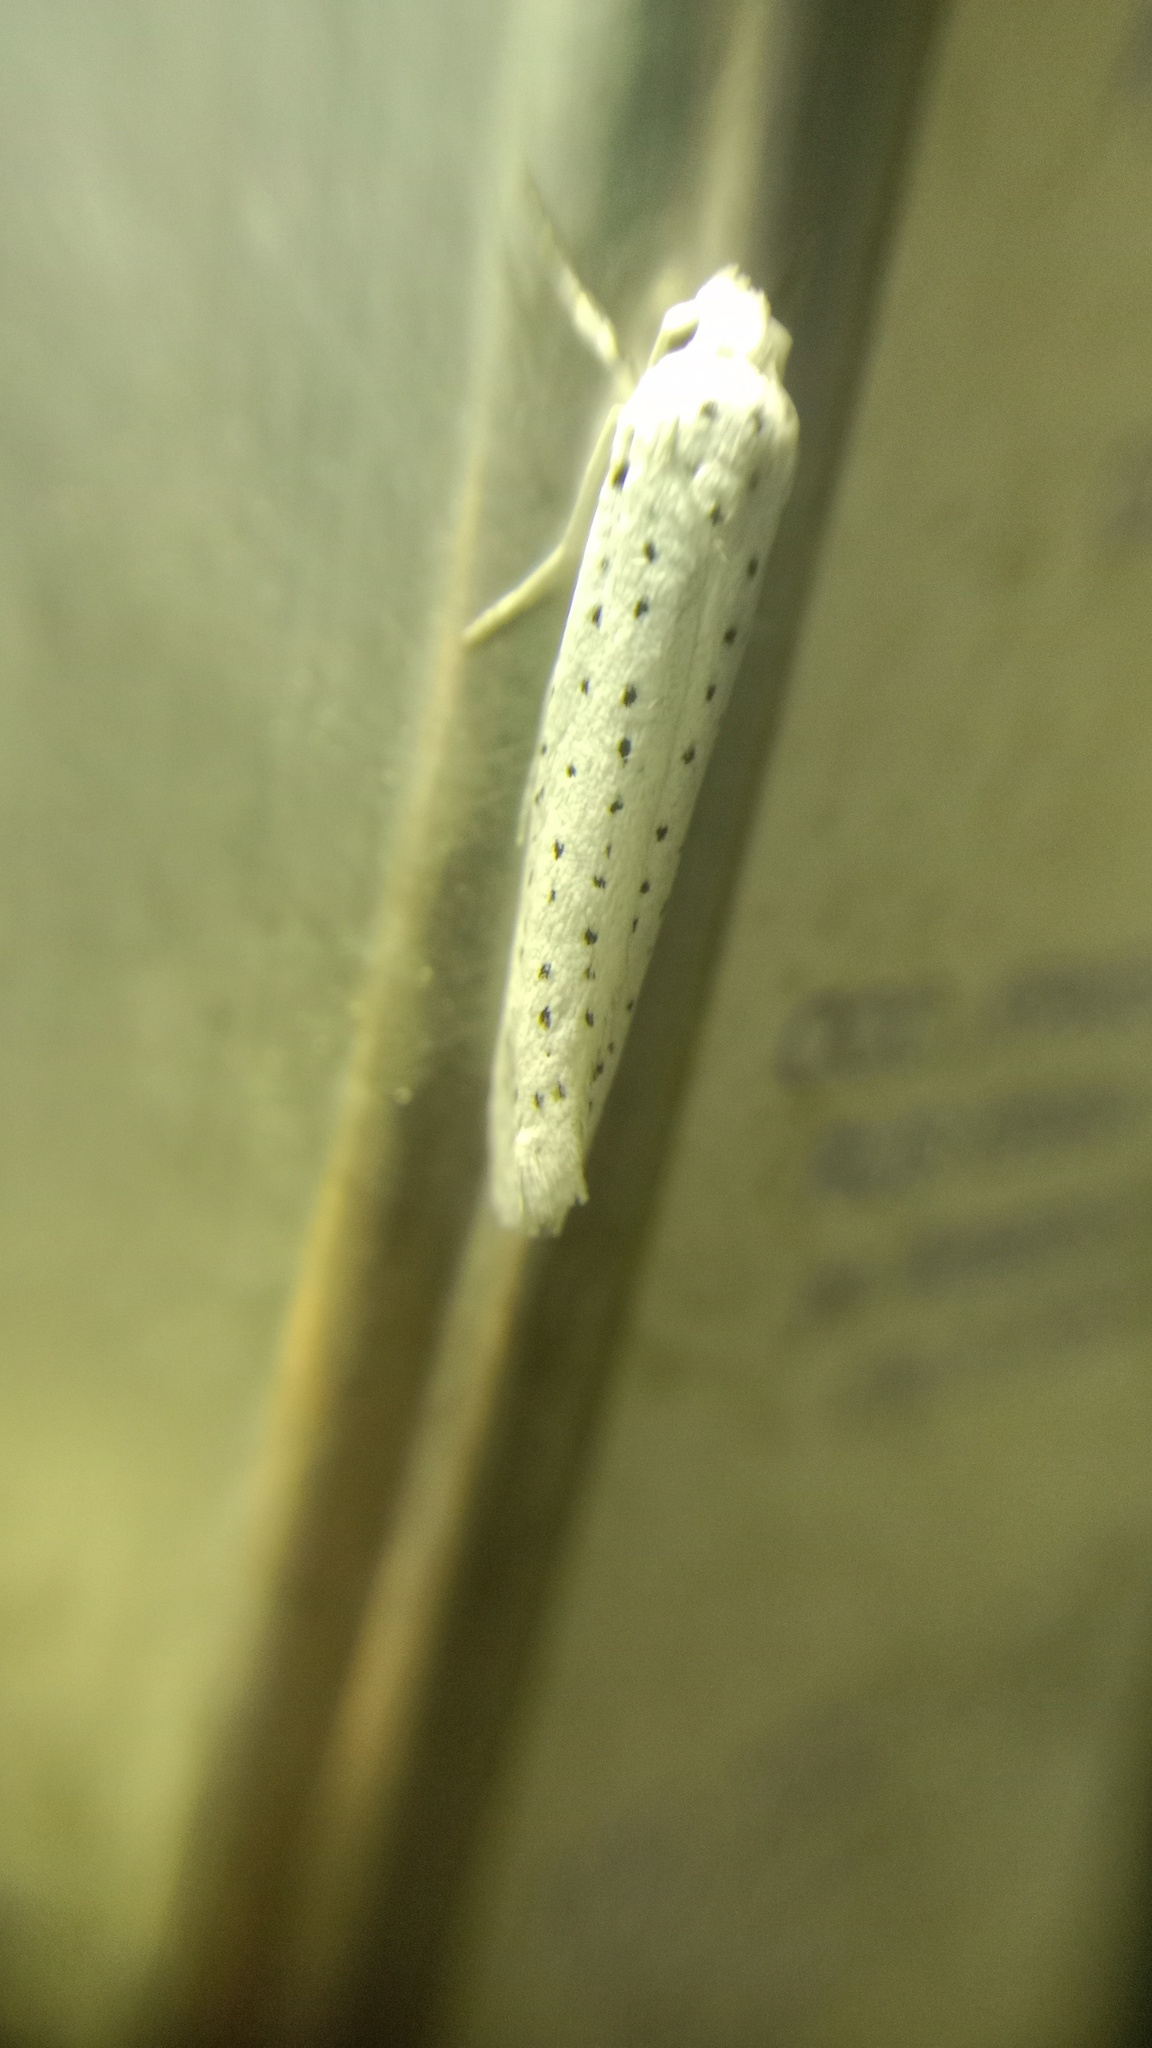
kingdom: Animalia
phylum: Arthropoda
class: Insecta
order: Lepidoptera
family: Yponomeutidae
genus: Yponomeuta
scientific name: Yponomeuta evonymella
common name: Bird-cherry ermine
